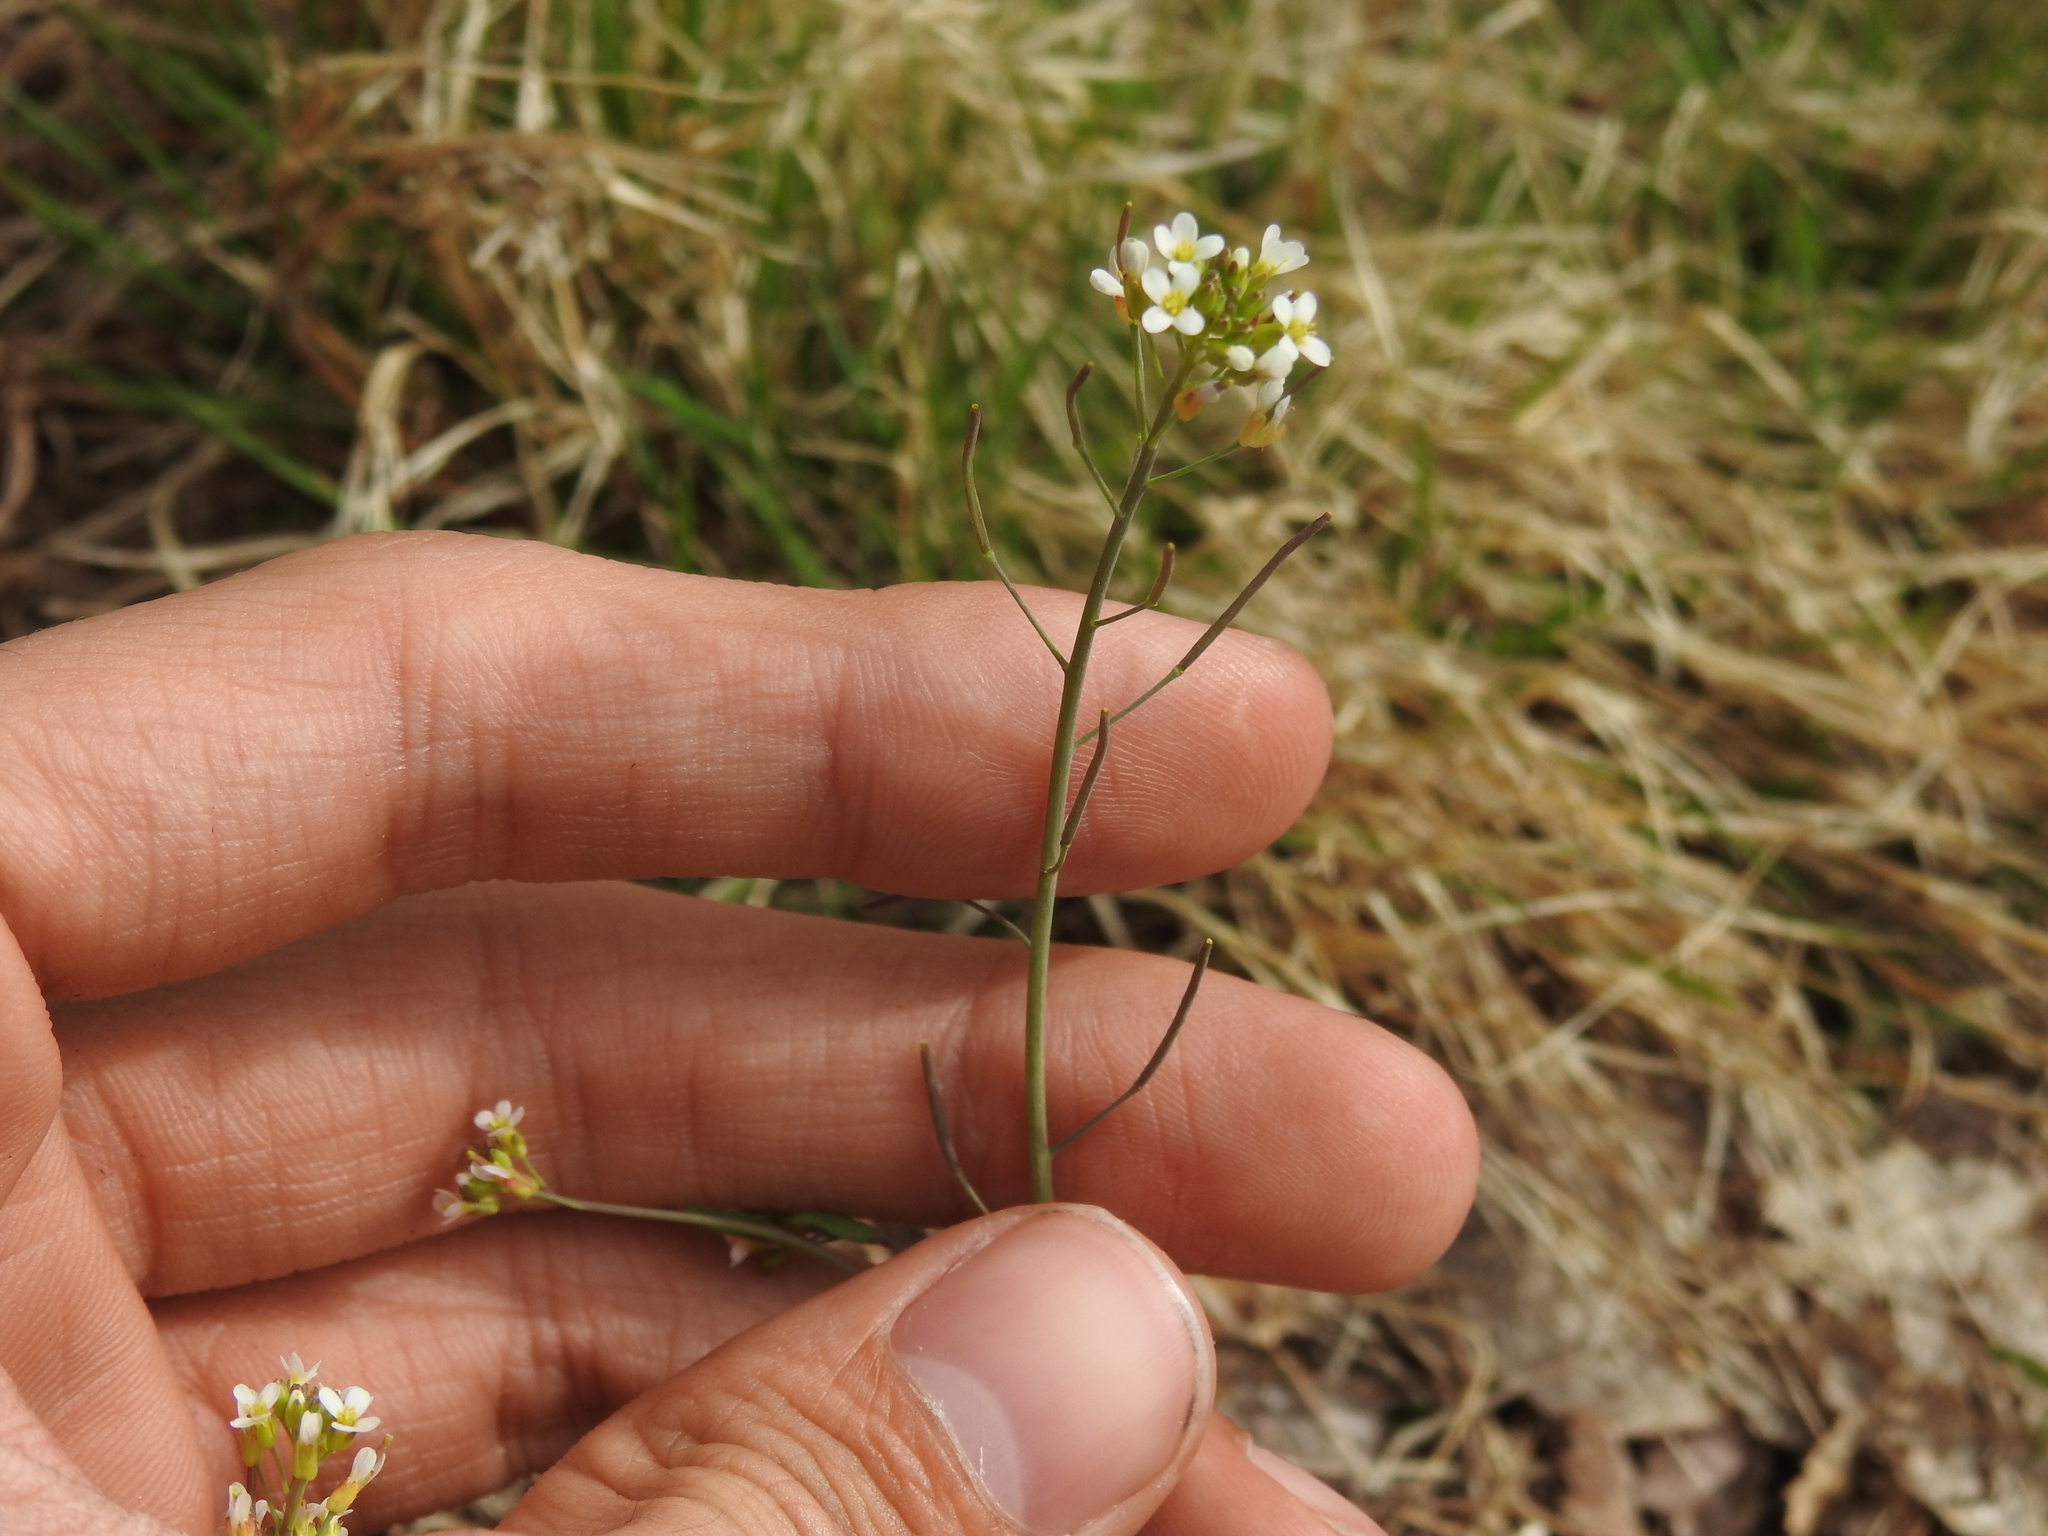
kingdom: Plantae
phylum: Tracheophyta
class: Magnoliopsida
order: Brassicales
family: Brassicaceae
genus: Arabidopsis
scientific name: Arabidopsis thaliana
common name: Thale cress
